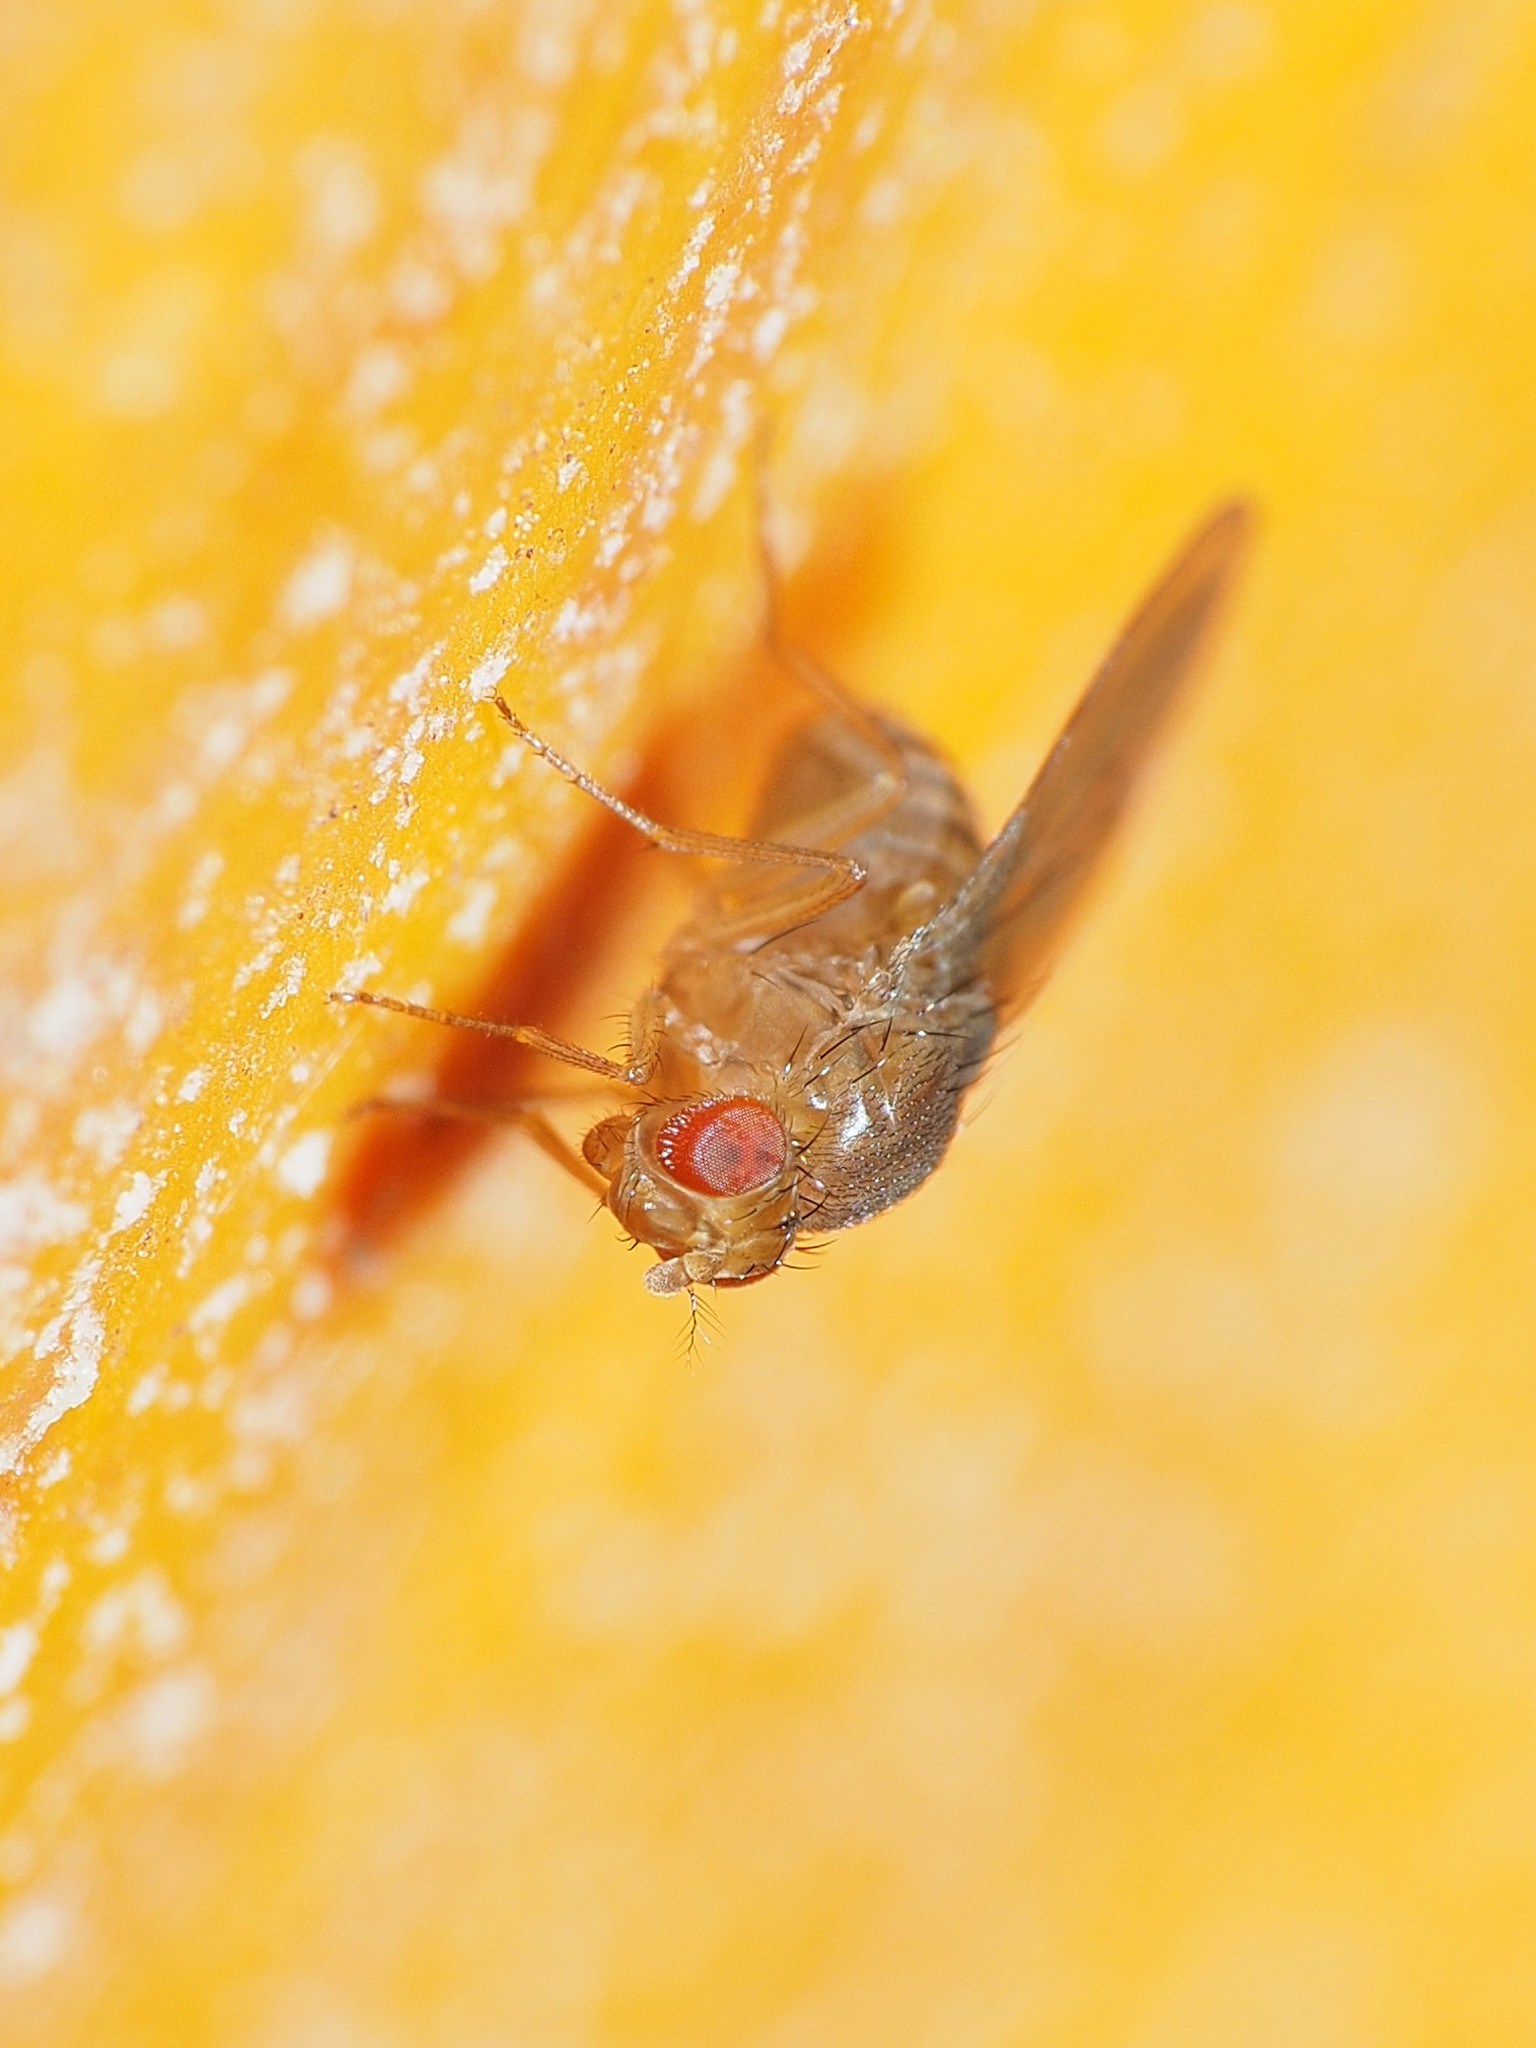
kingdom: Animalia
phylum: Arthropoda
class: Insecta
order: Diptera
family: Drosophilidae
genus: Drosophila
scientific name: Drosophila immigrans
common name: Pomace fly
